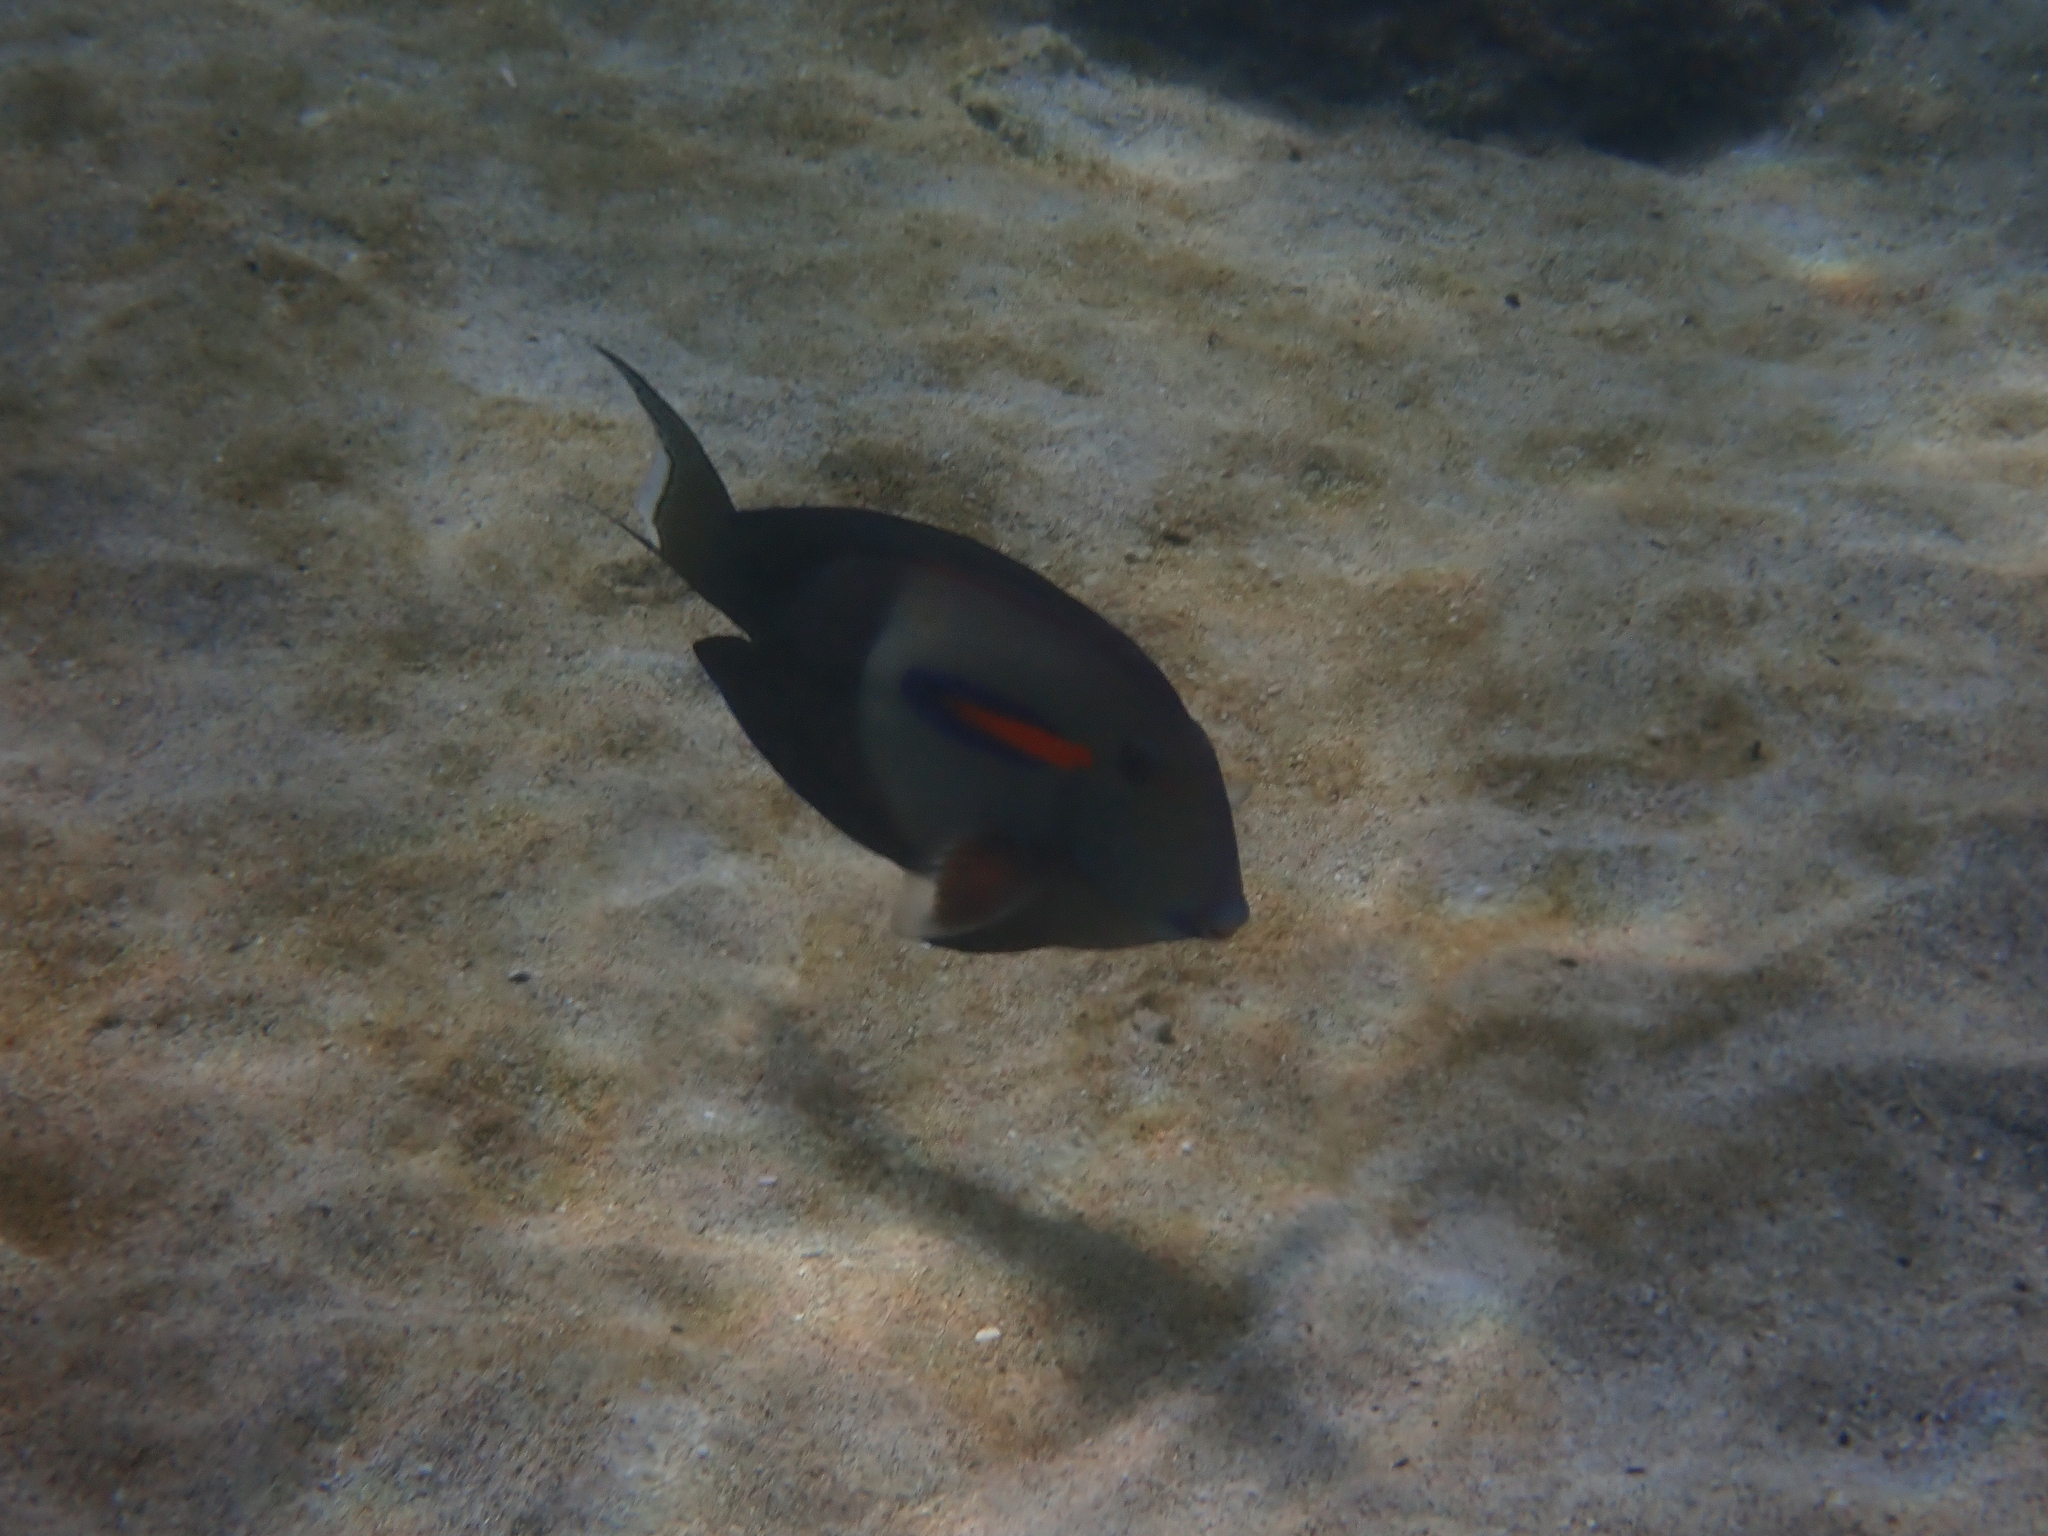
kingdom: Animalia
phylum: Chordata
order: Perciformes
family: Acanthuridae
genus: Acanthurus
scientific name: Acanthurus olivaceus
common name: Gendarme fish
